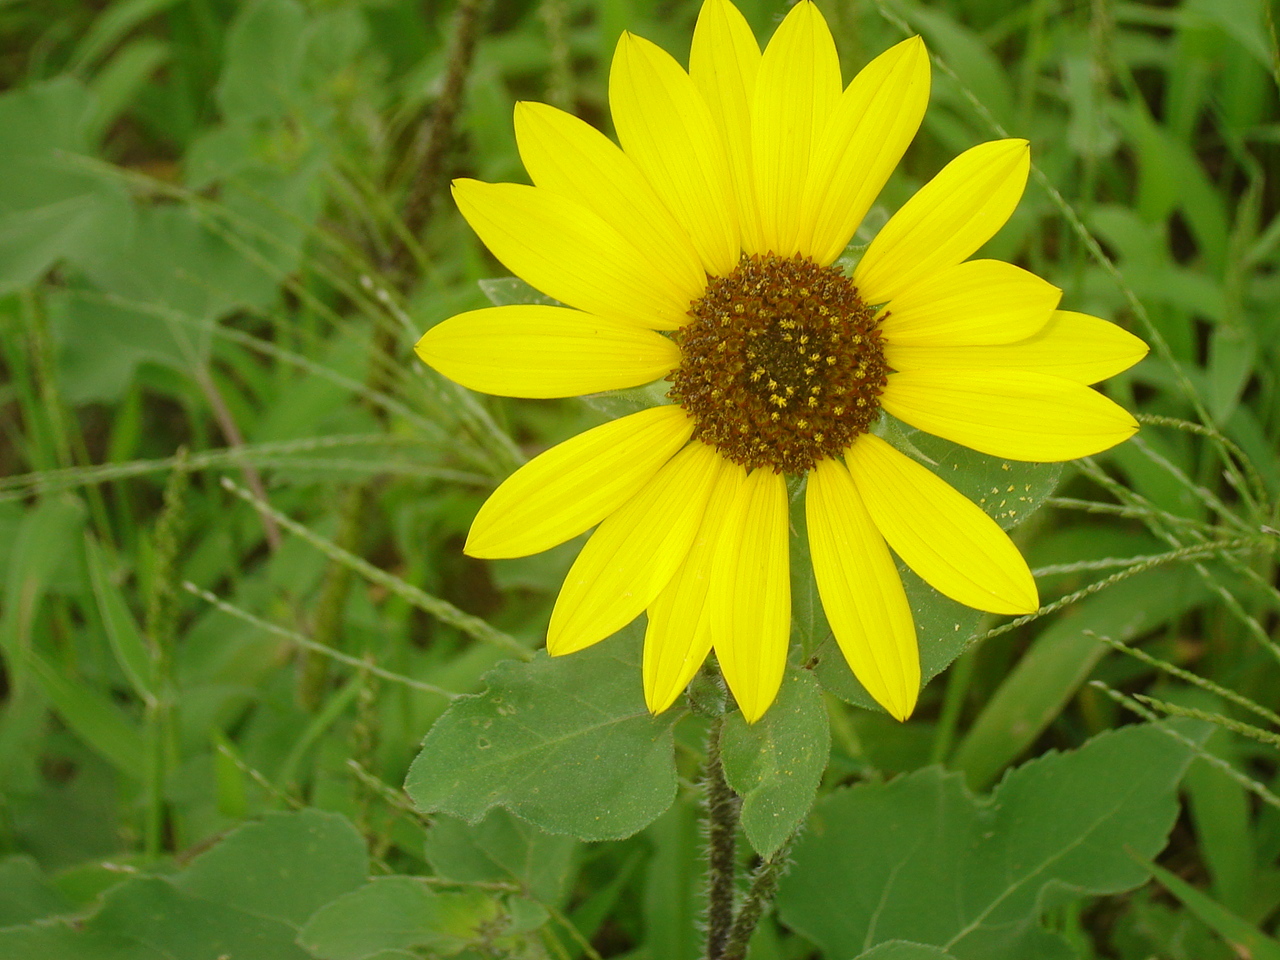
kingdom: Plantae
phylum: Tracheophyta
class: Magnoliopsida
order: Asterales
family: Asteraceae
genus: Helianthus
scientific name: Helianthus annuus
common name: Sunflower
